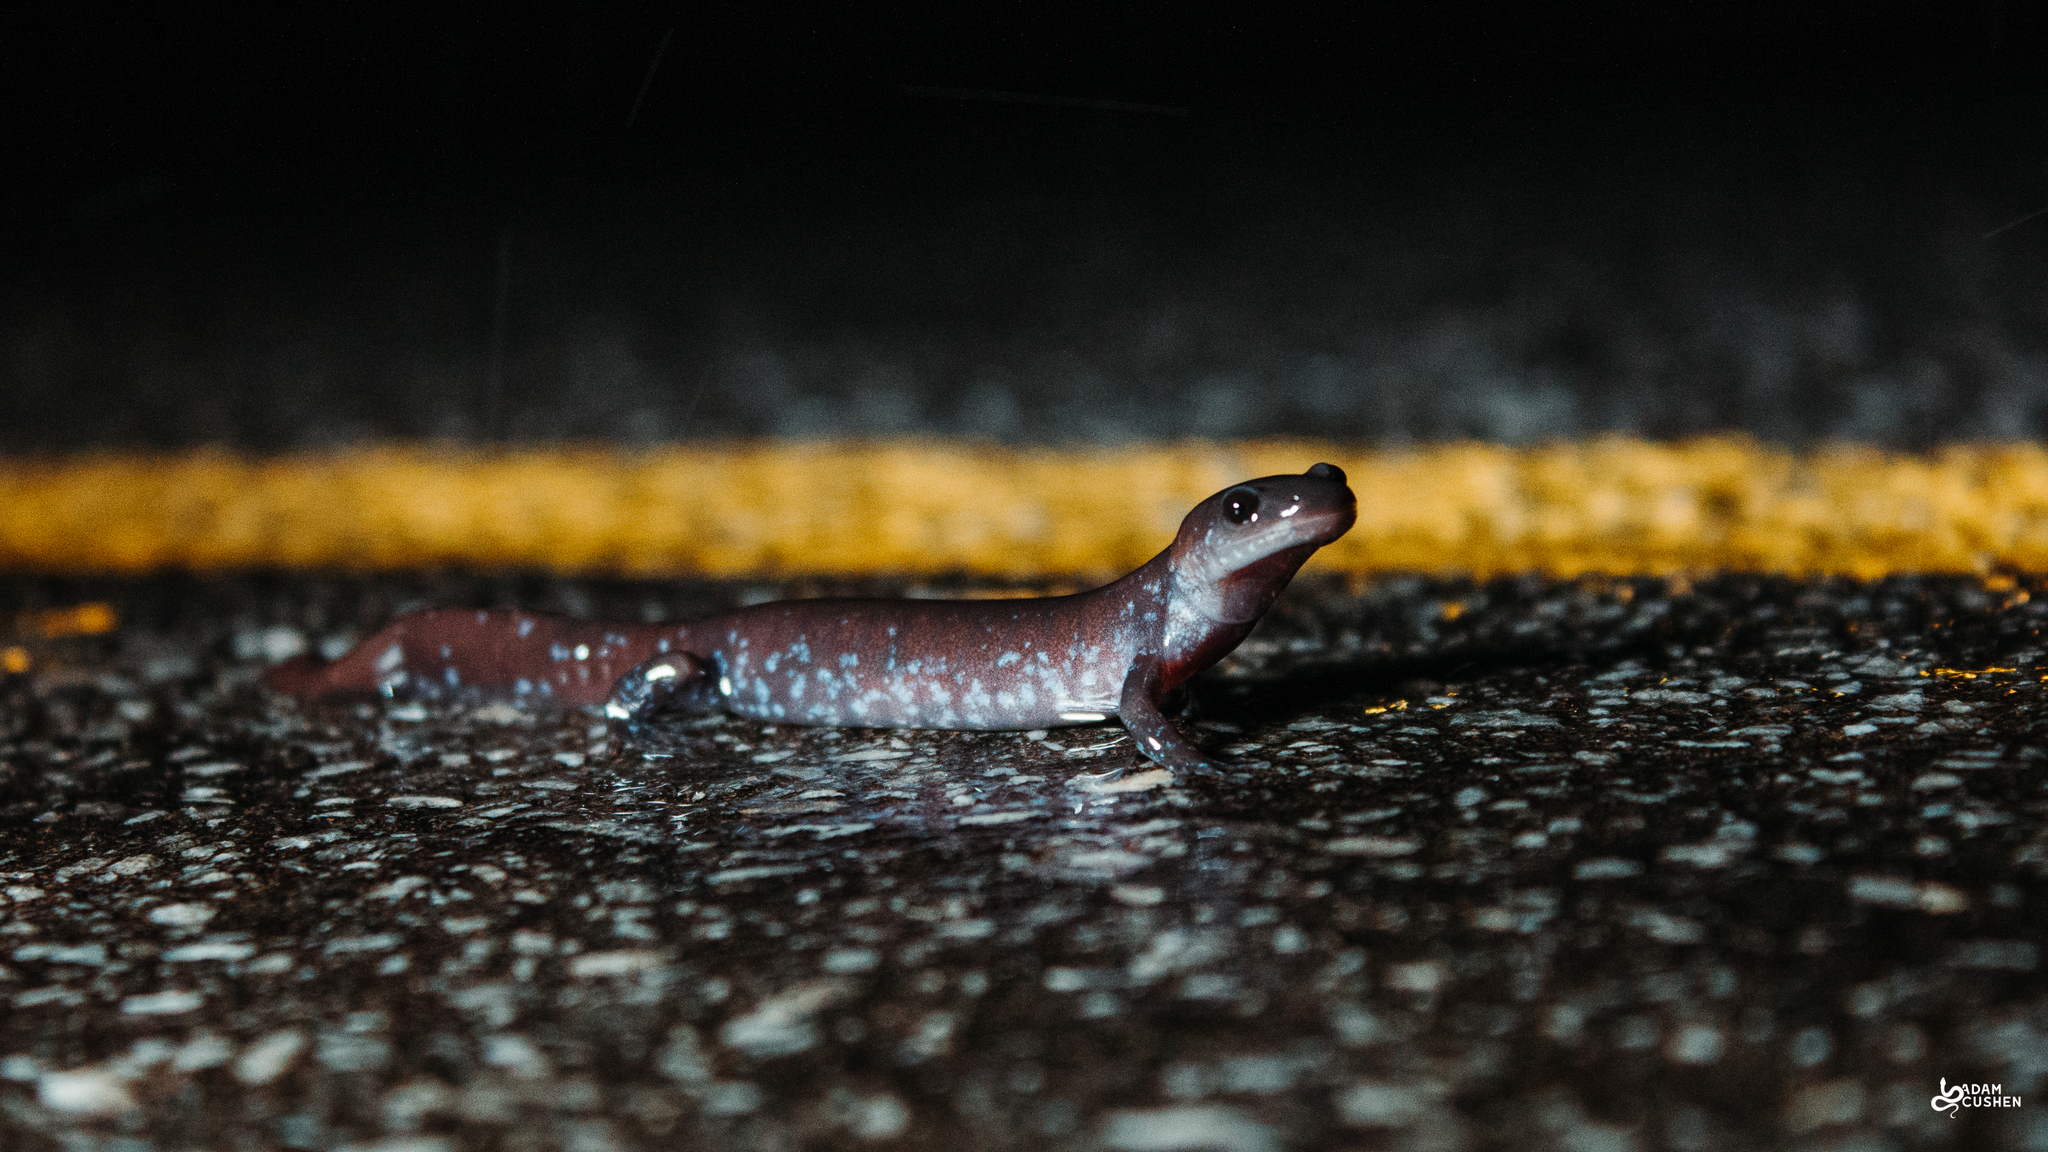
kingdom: Animalia
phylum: Chordata
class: Amphibia
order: Caudata
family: Ambystomatidae
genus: Ambystoma
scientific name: Ambystoma laterale
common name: Blue-spotted salamander
